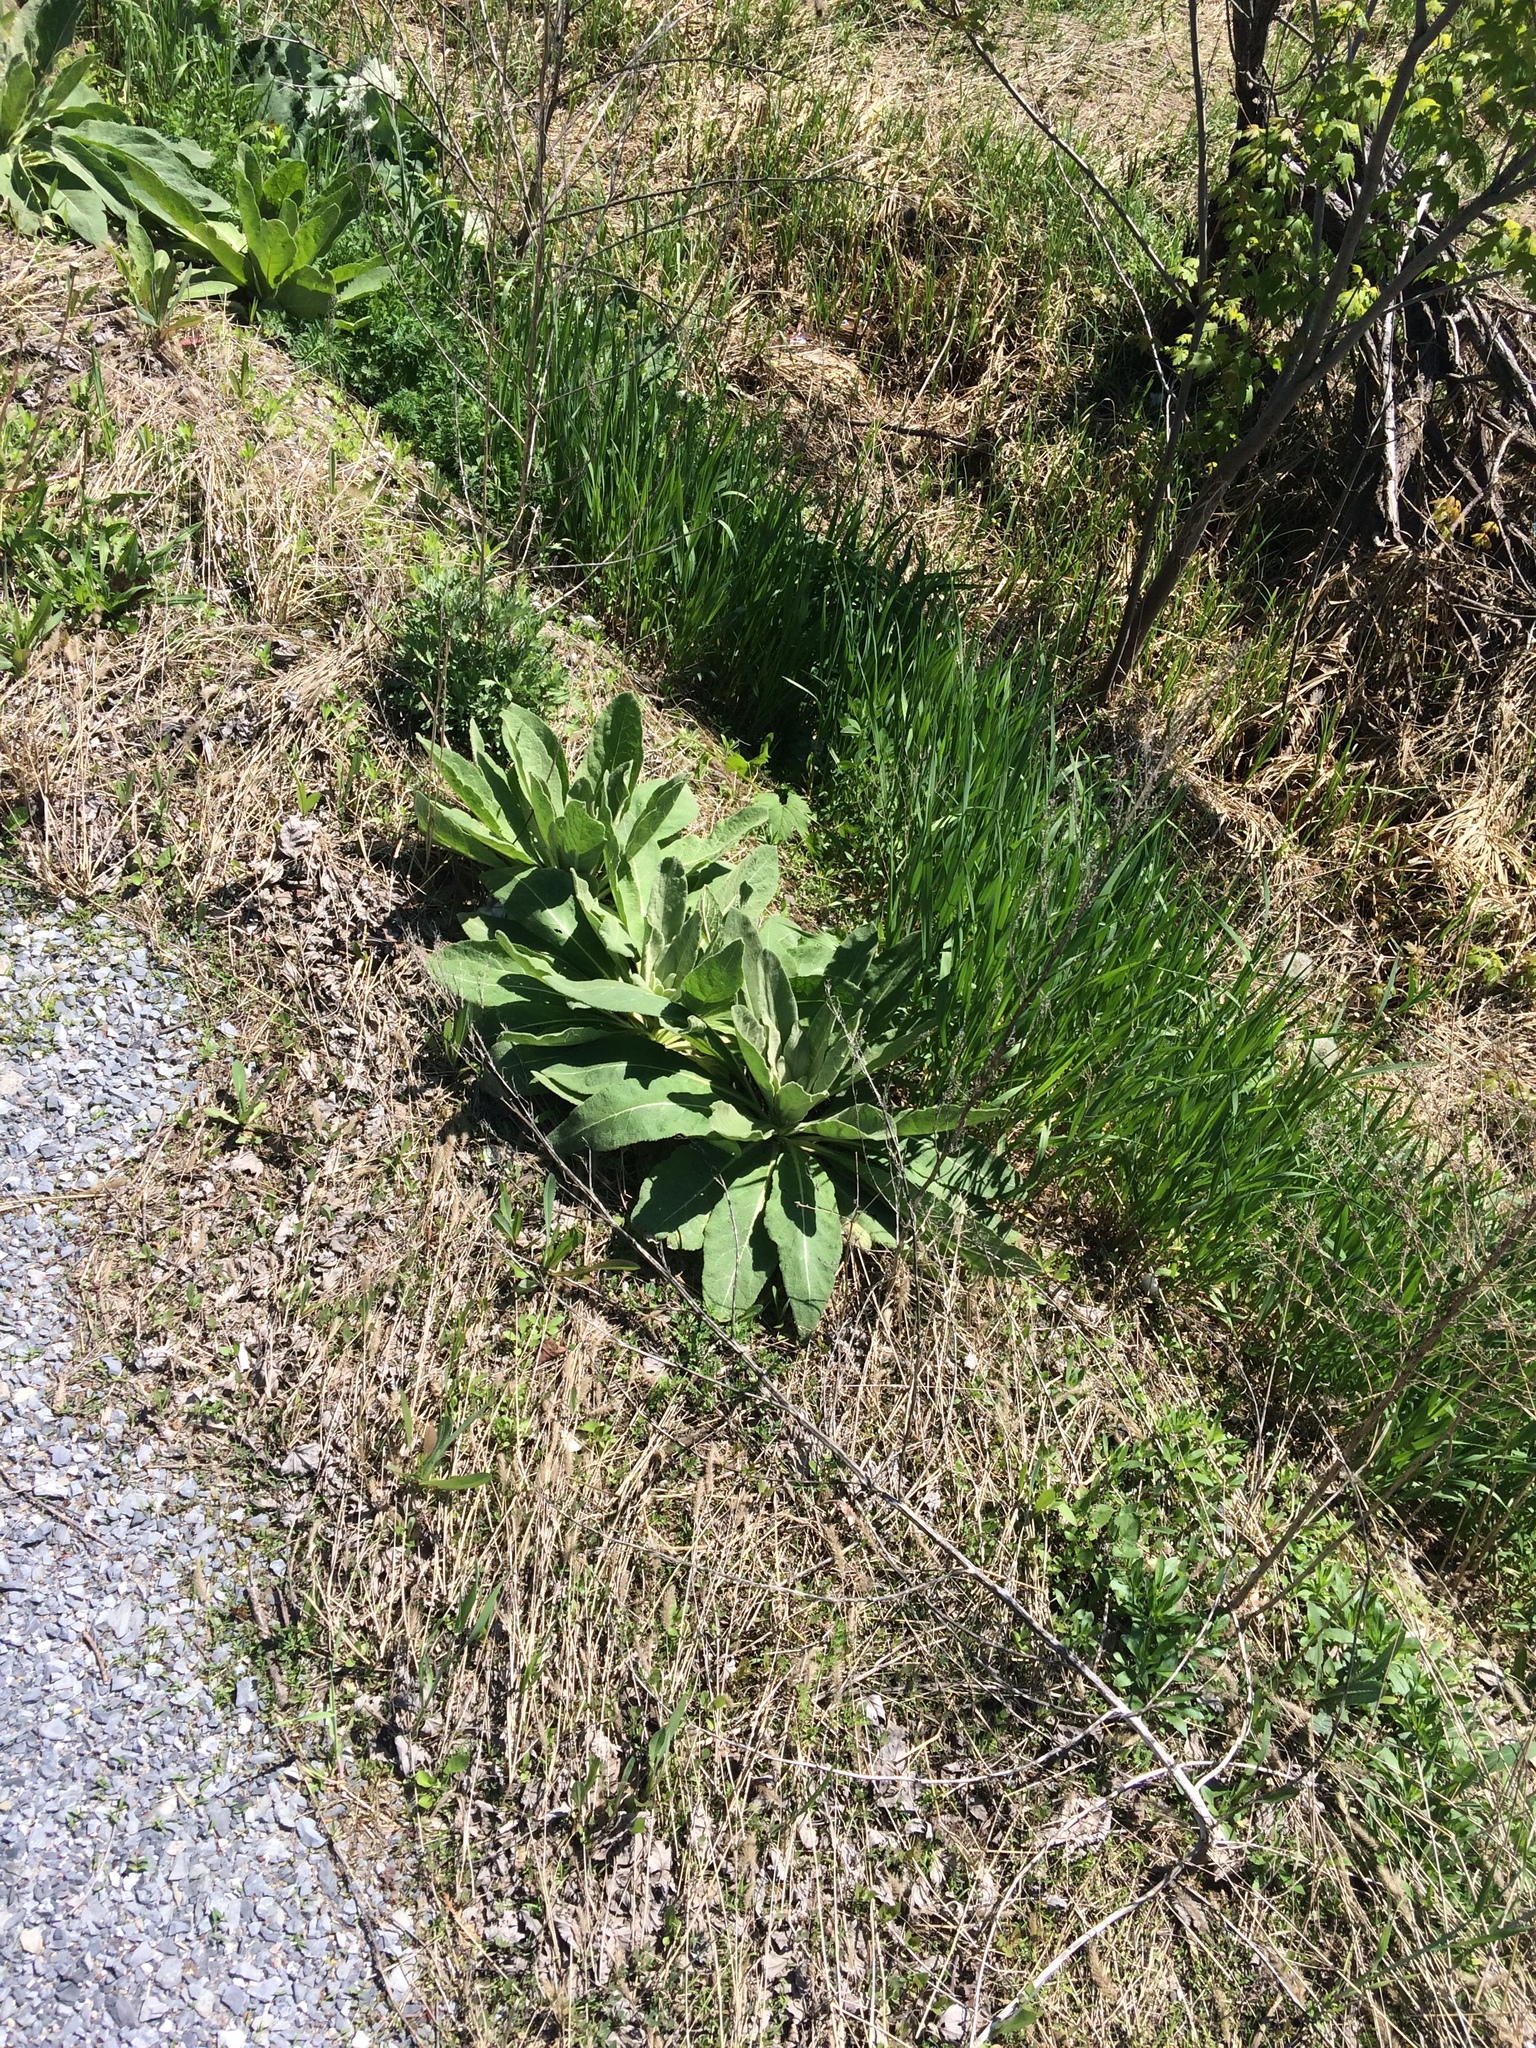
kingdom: Plantae
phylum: Tracheophyta
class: Magnoliopsida
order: Lamiales
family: Scrophulariaceae
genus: Verbascum
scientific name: Verbascum thapsus
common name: Common mullein
